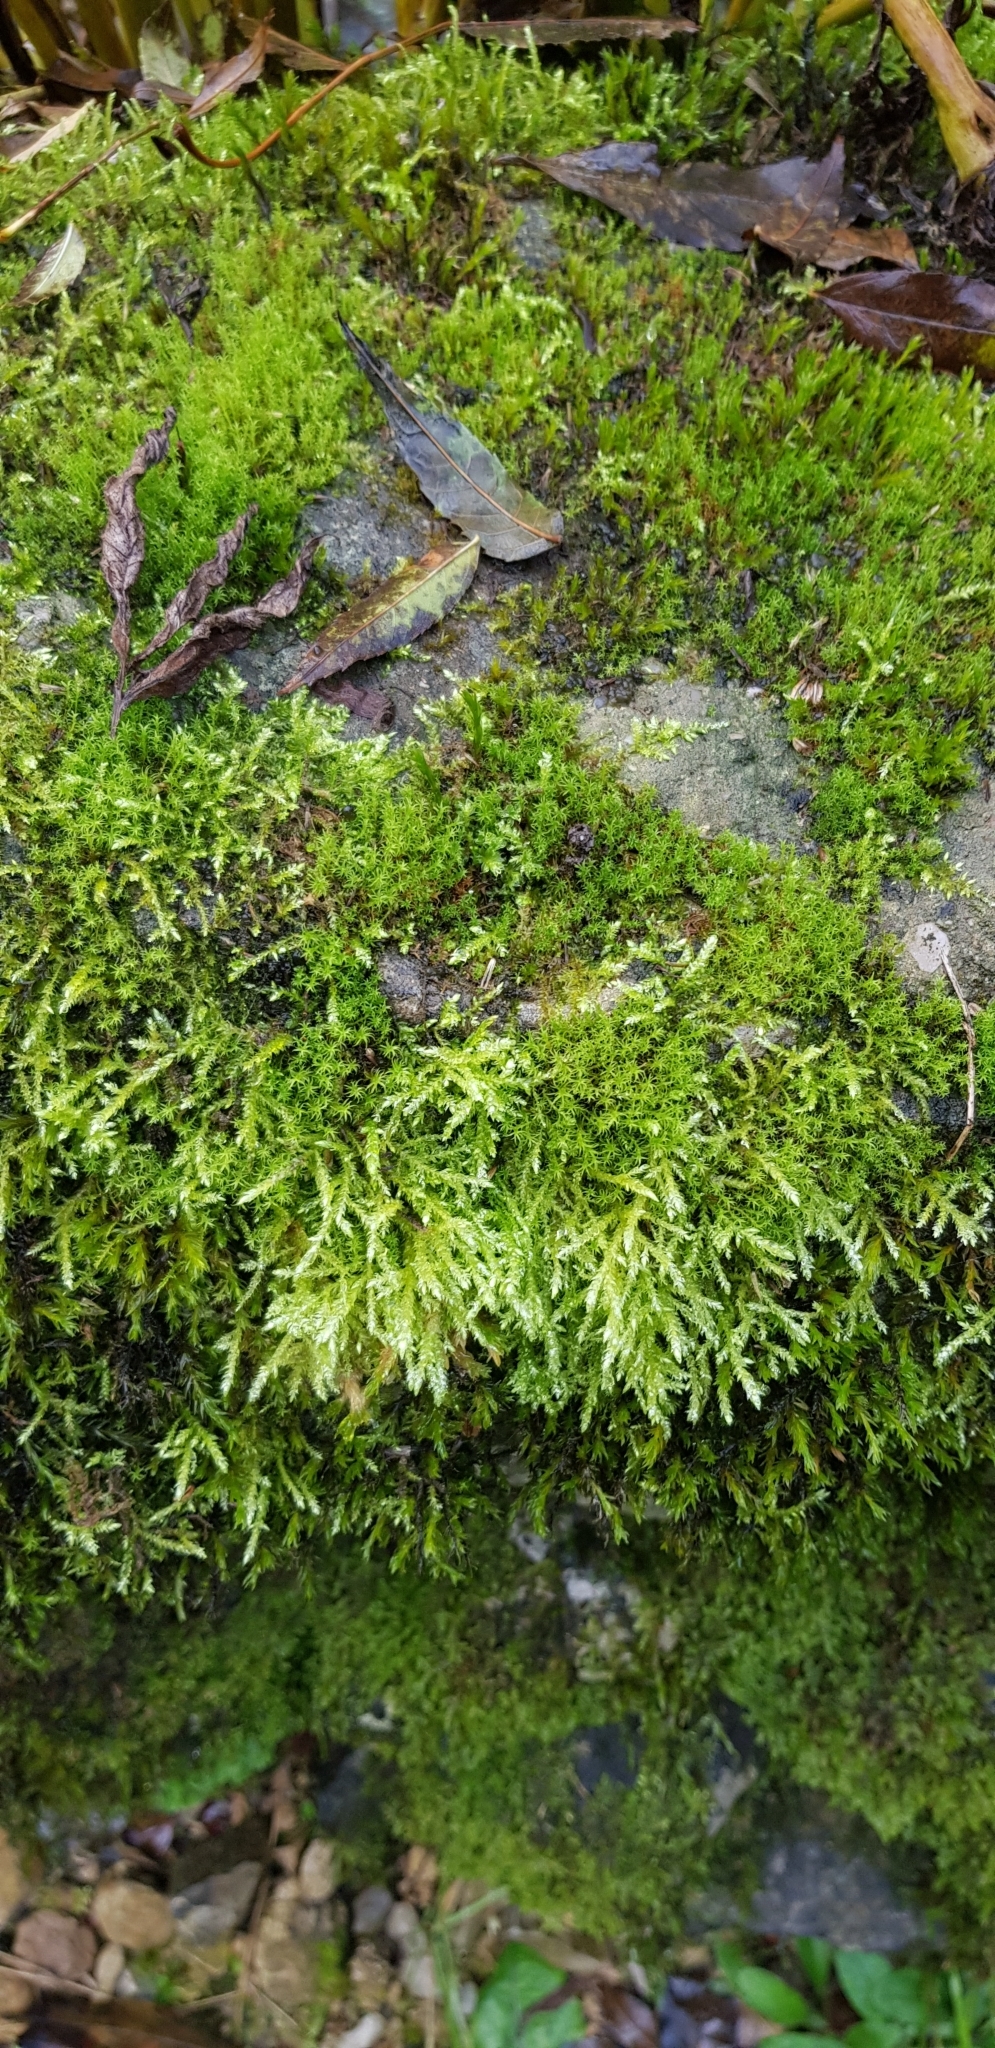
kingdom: Plantae
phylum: Bryophyta
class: Bryopsida
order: Pottiales
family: Pottiaceae
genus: Vinealobryum
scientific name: Vinealobryum insulanum
